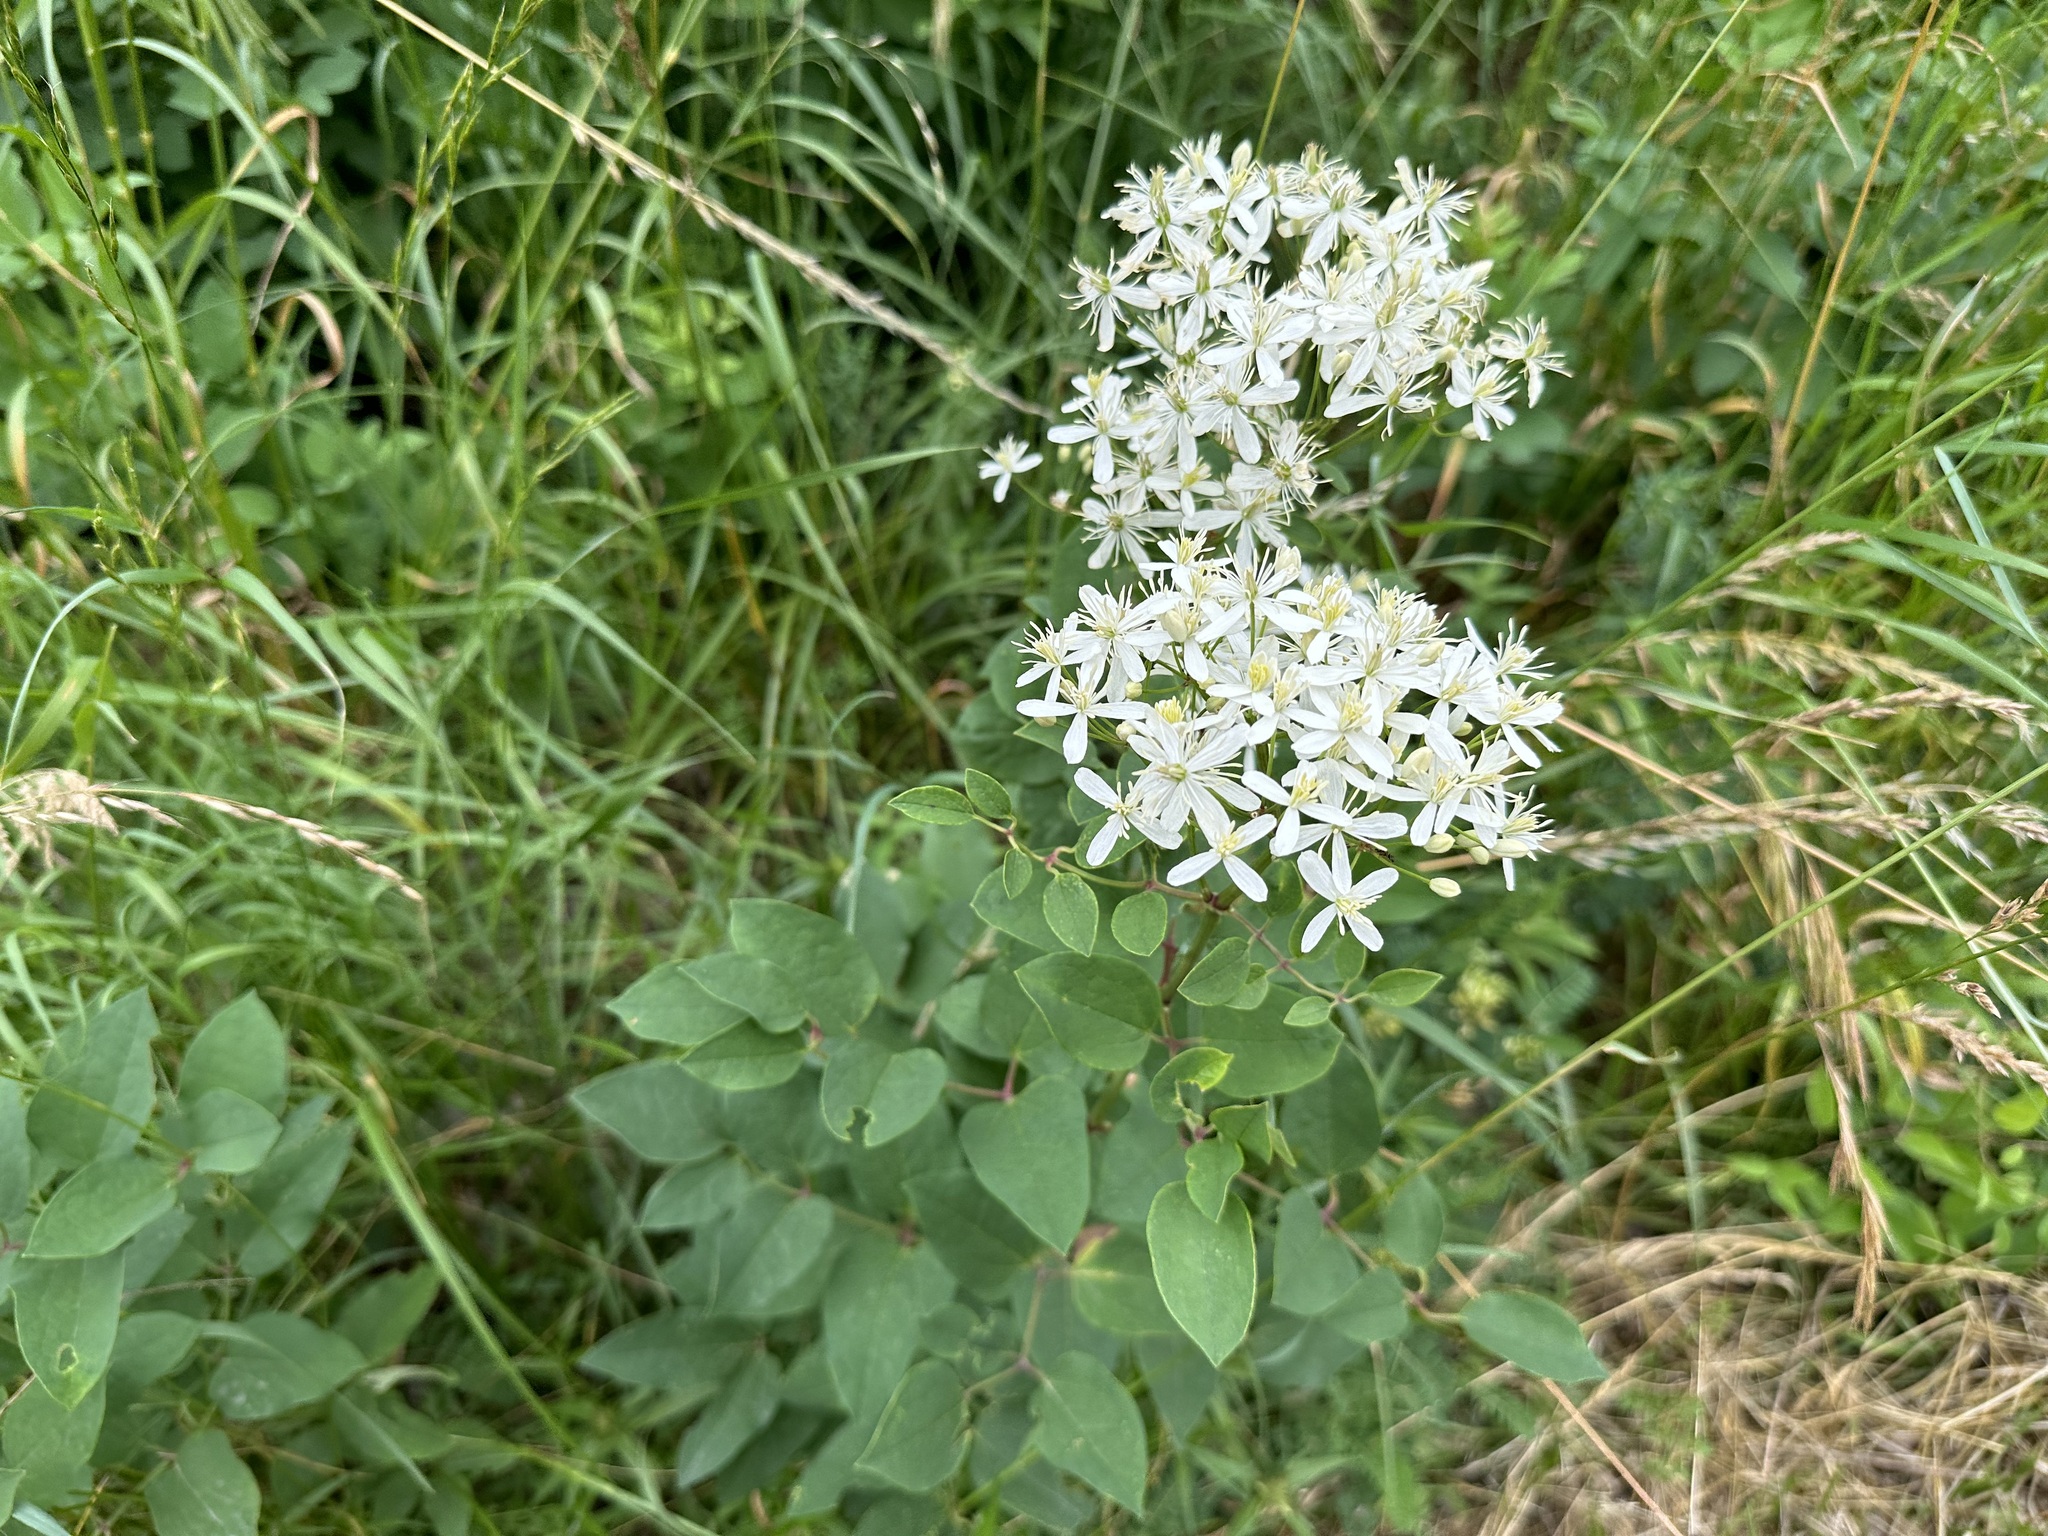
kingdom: Plantae
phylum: Tracheophyta
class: Magnoliopsida
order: Ranunculales
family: Ranunculaceae
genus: Clematis
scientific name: Clematis recta
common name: Ground clematis
